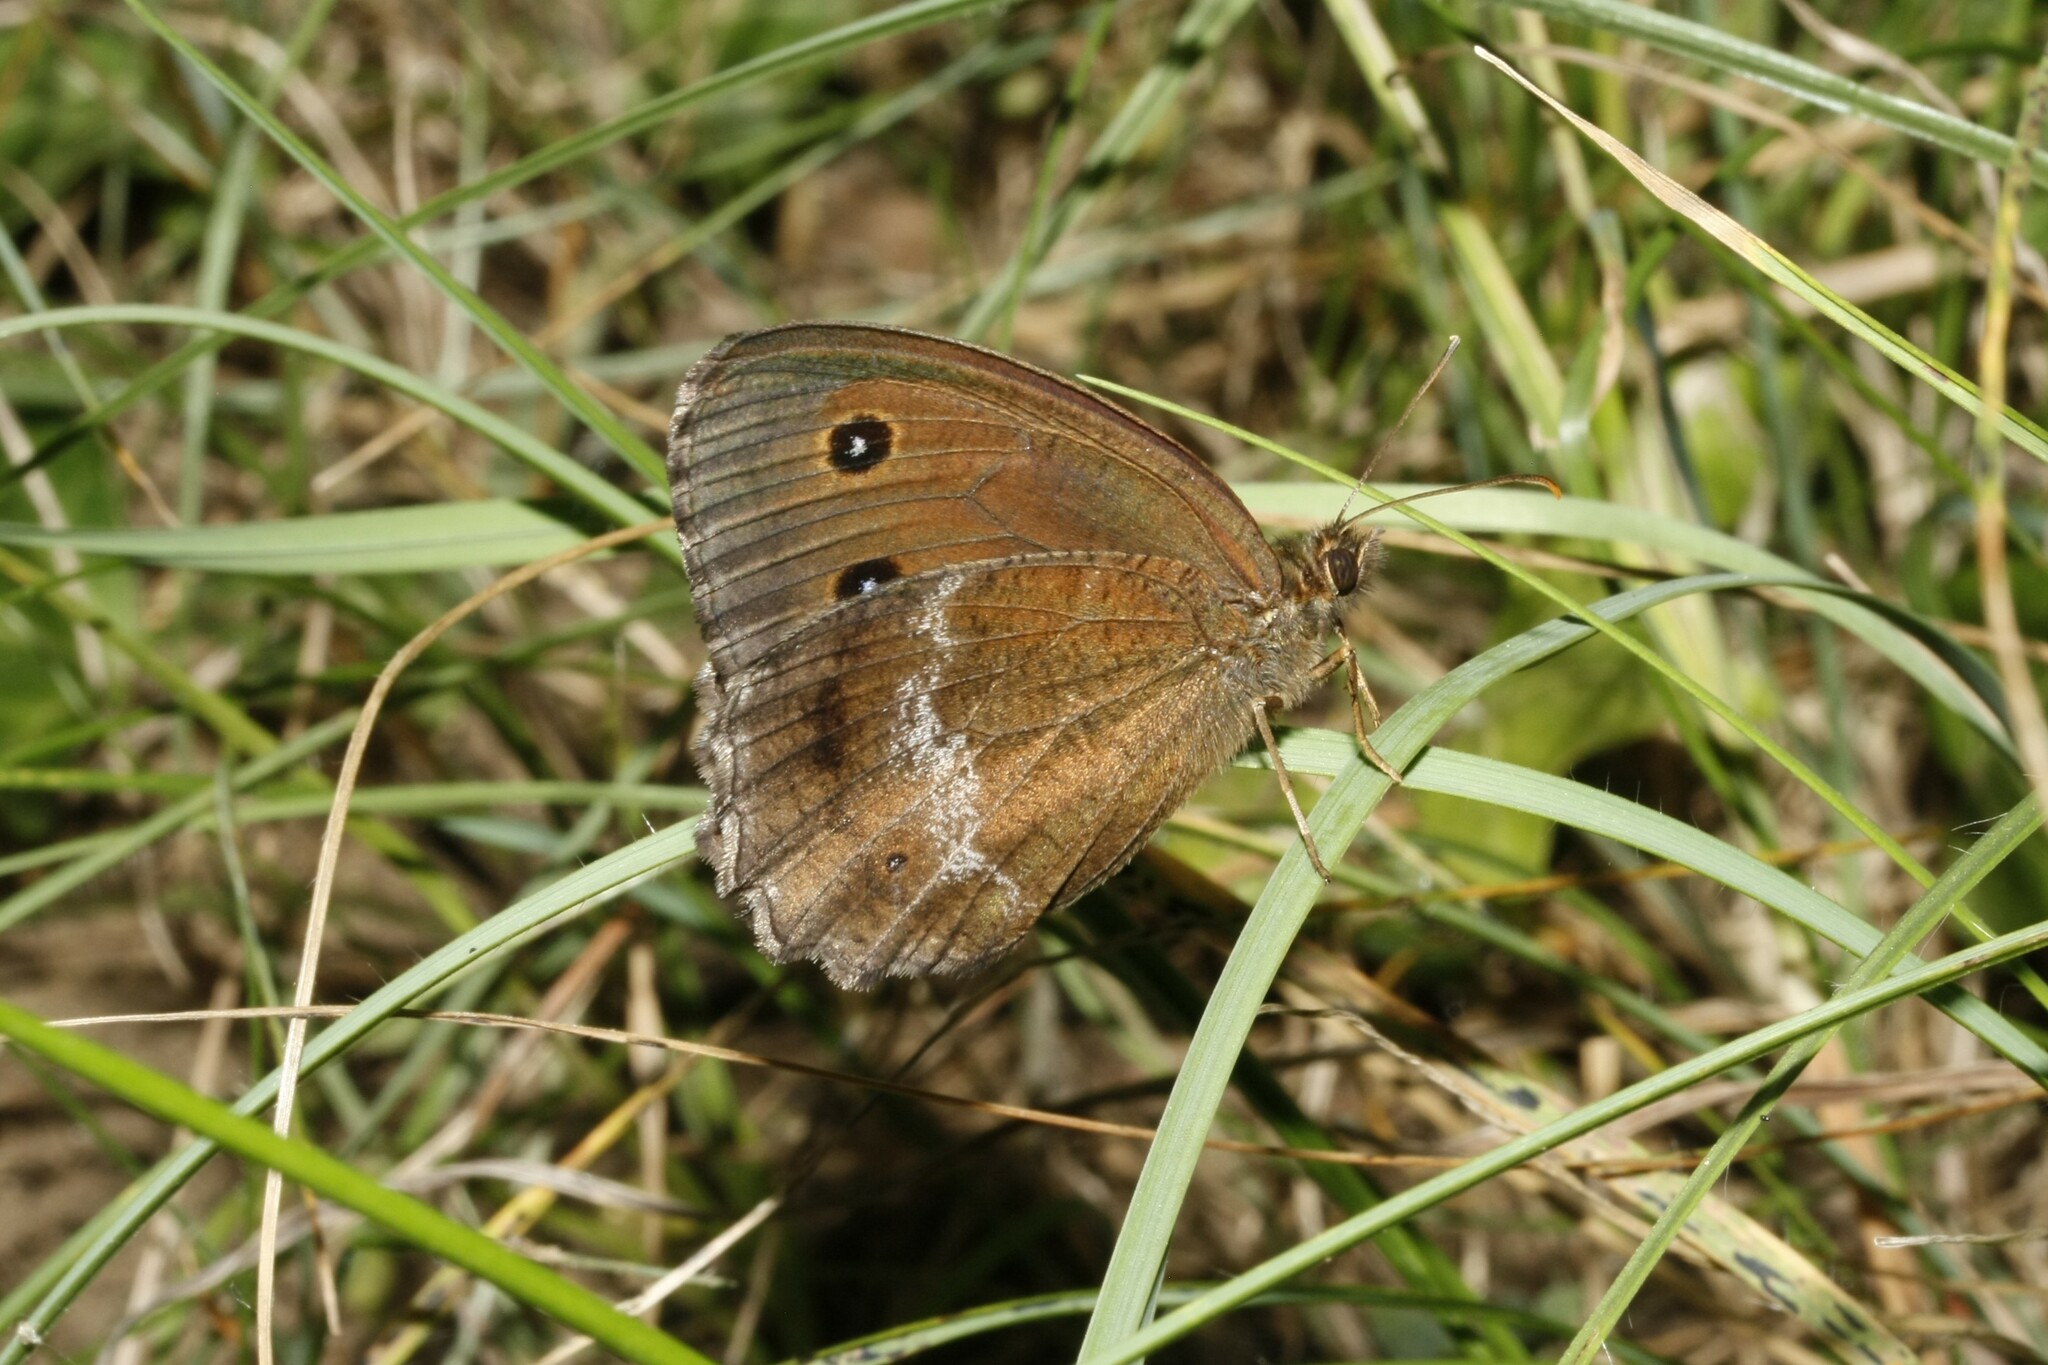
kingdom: Animalia
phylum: Arthropoda
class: Insecta
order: Lepidoptera
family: Nymphalidae
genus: Minois
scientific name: Minois dryas
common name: Dryad
